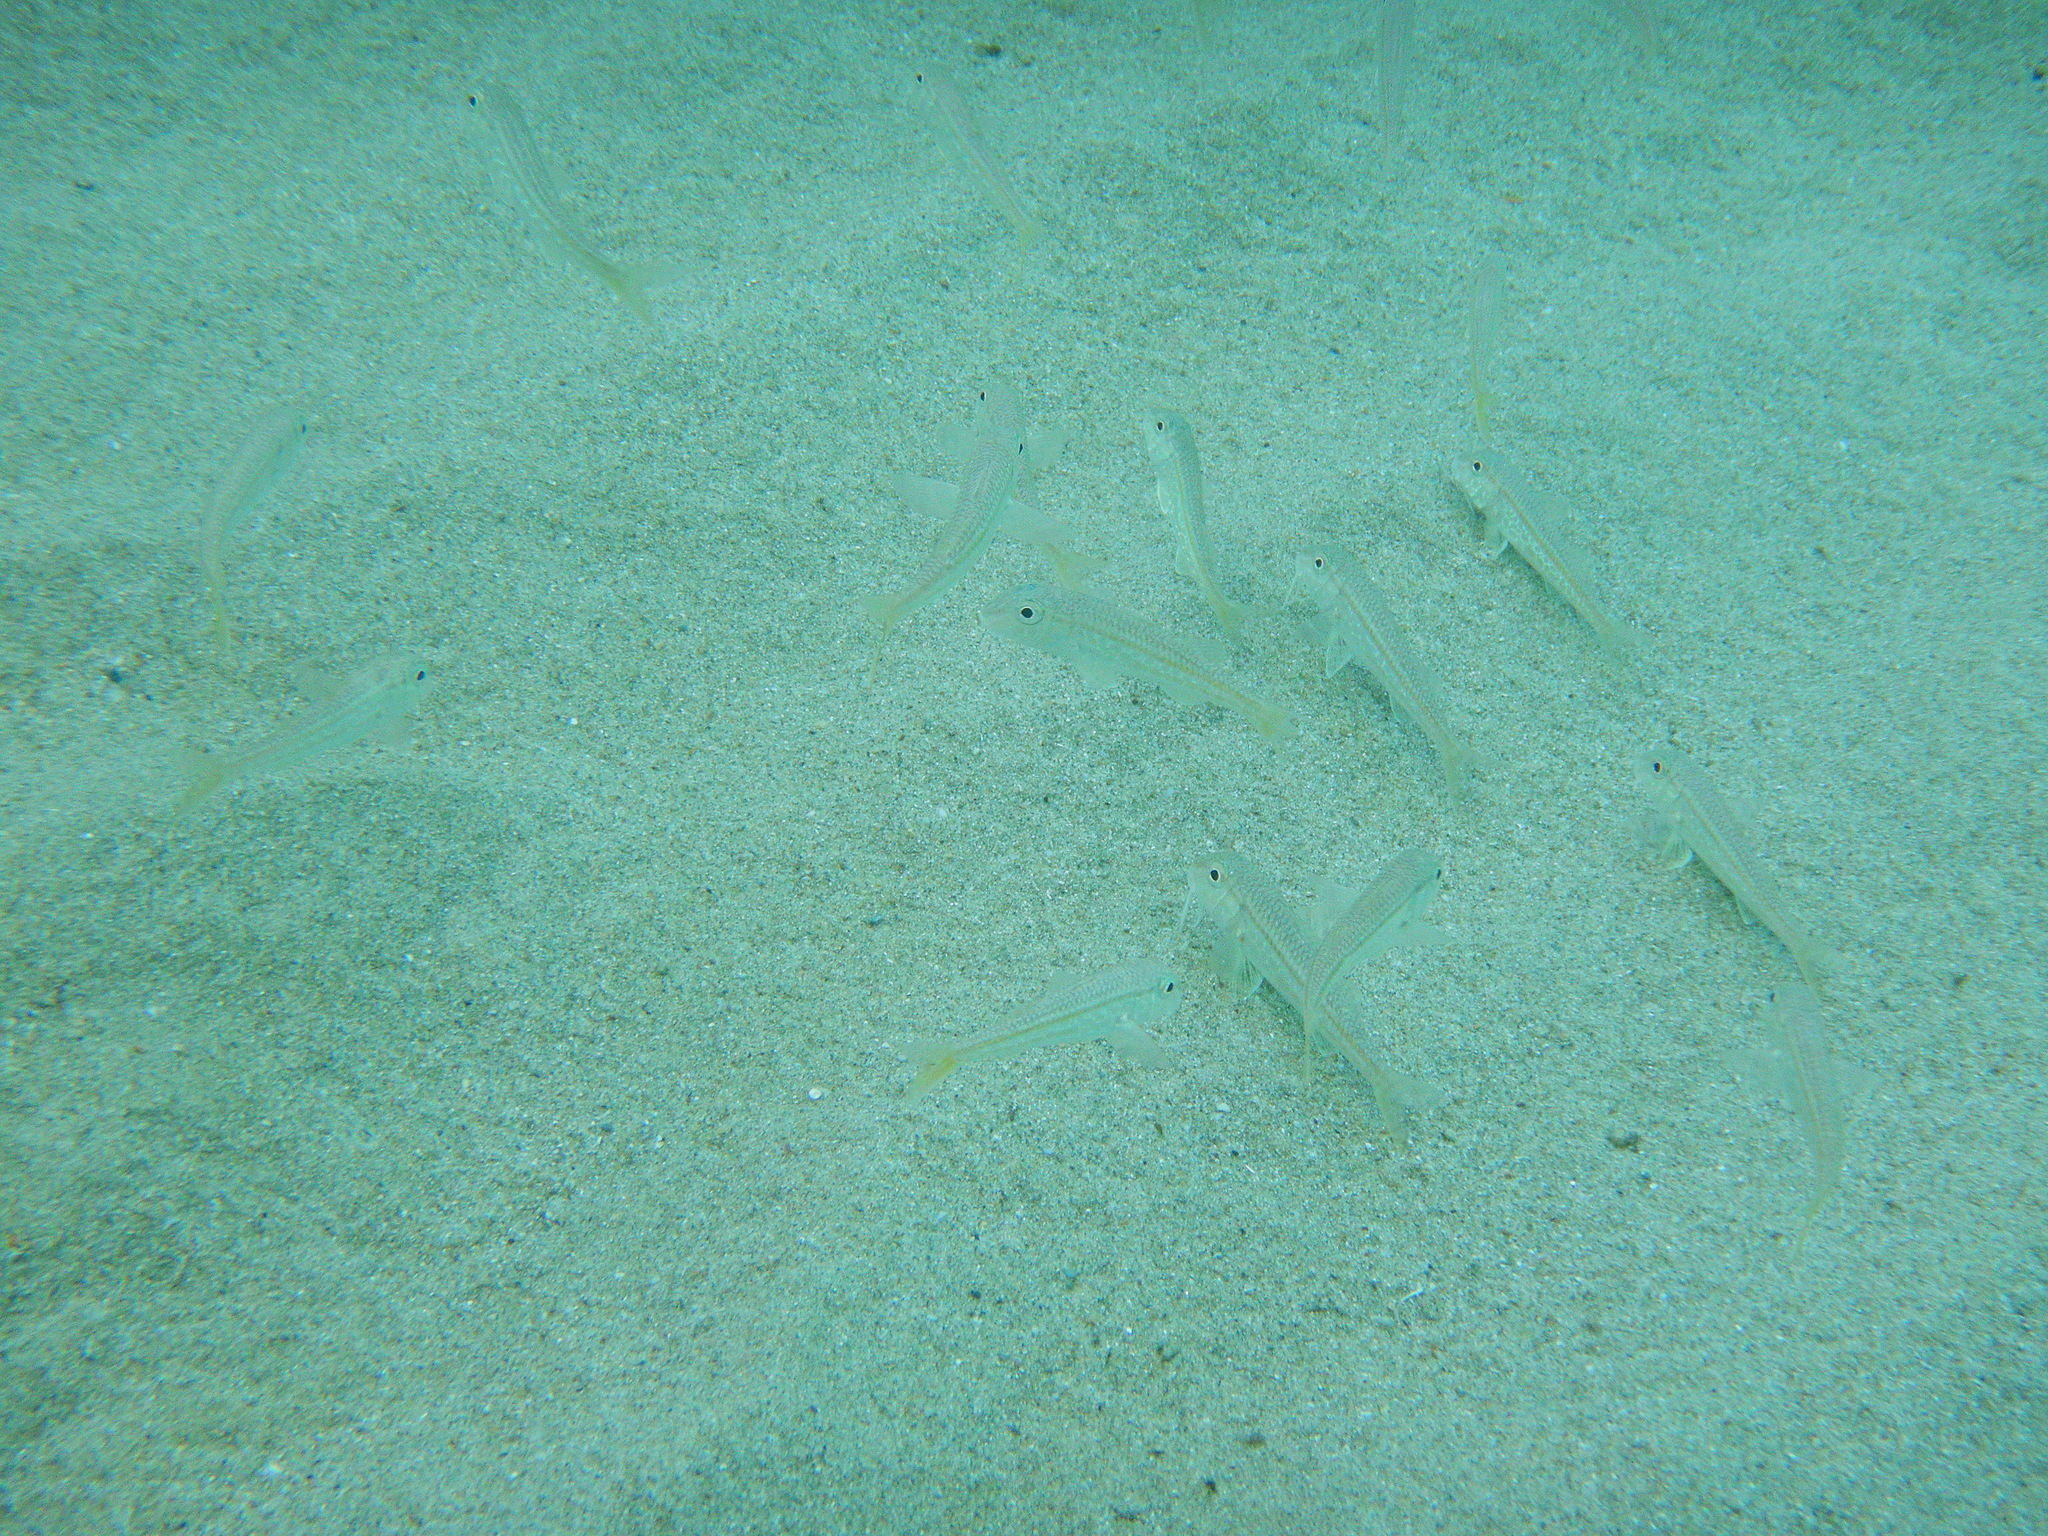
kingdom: Animalia
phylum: Chordata
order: Perciformes
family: Mullidae
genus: Mullus
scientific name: Mullus barbatus
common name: Blunt-snouted mullet
